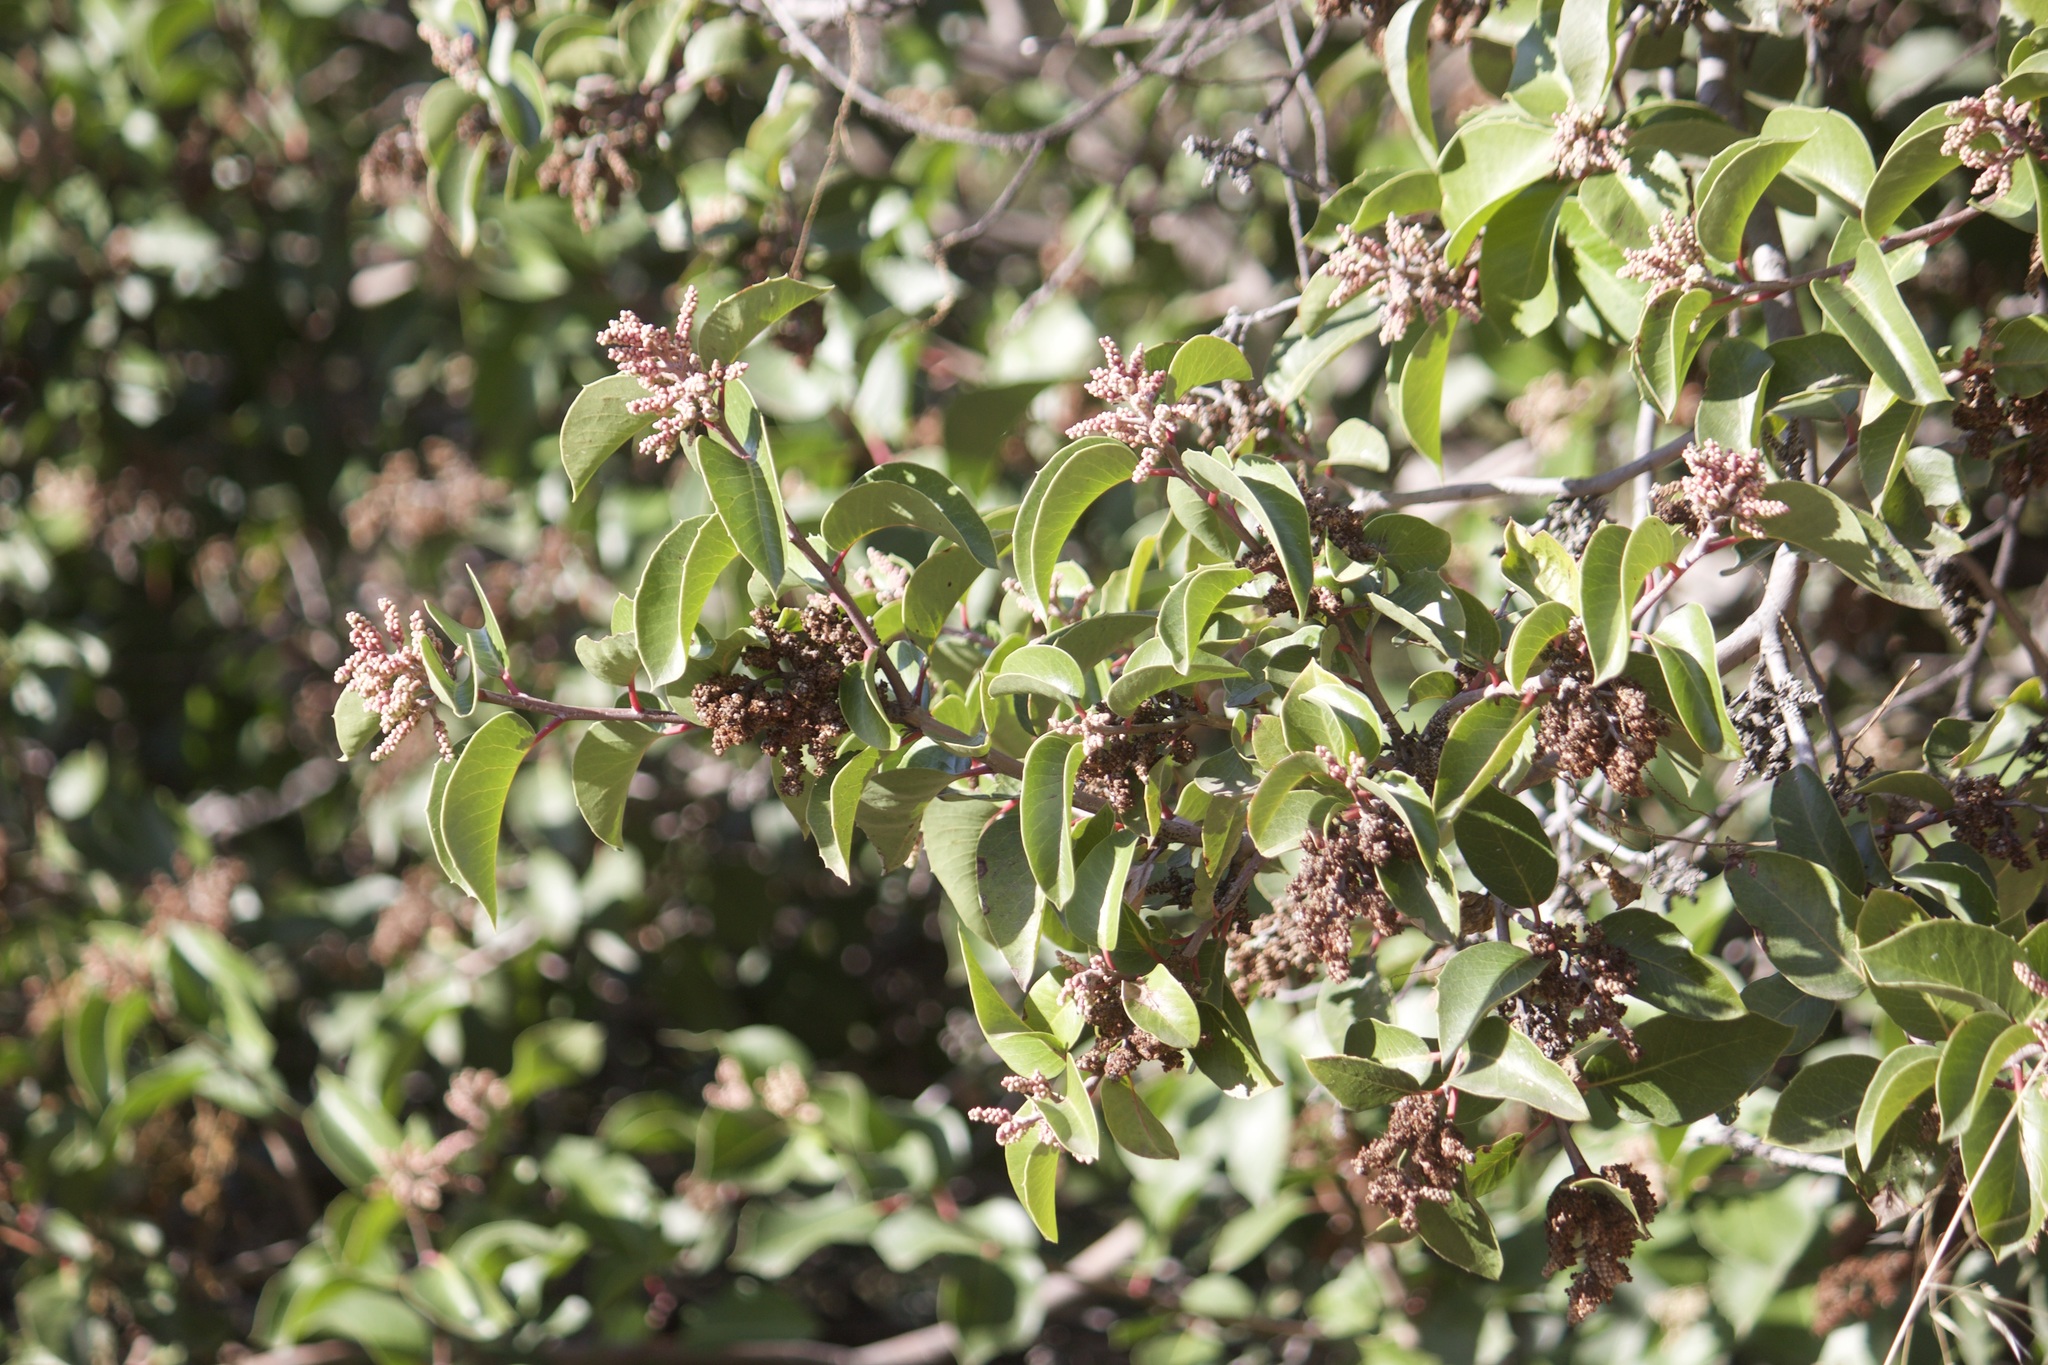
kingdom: Plantae
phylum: Tracheophyta
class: Magnoliopsida
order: Sapindales
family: Anacardiaceae
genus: Rhus
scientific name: Rhus ovata
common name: Sugar sumac
